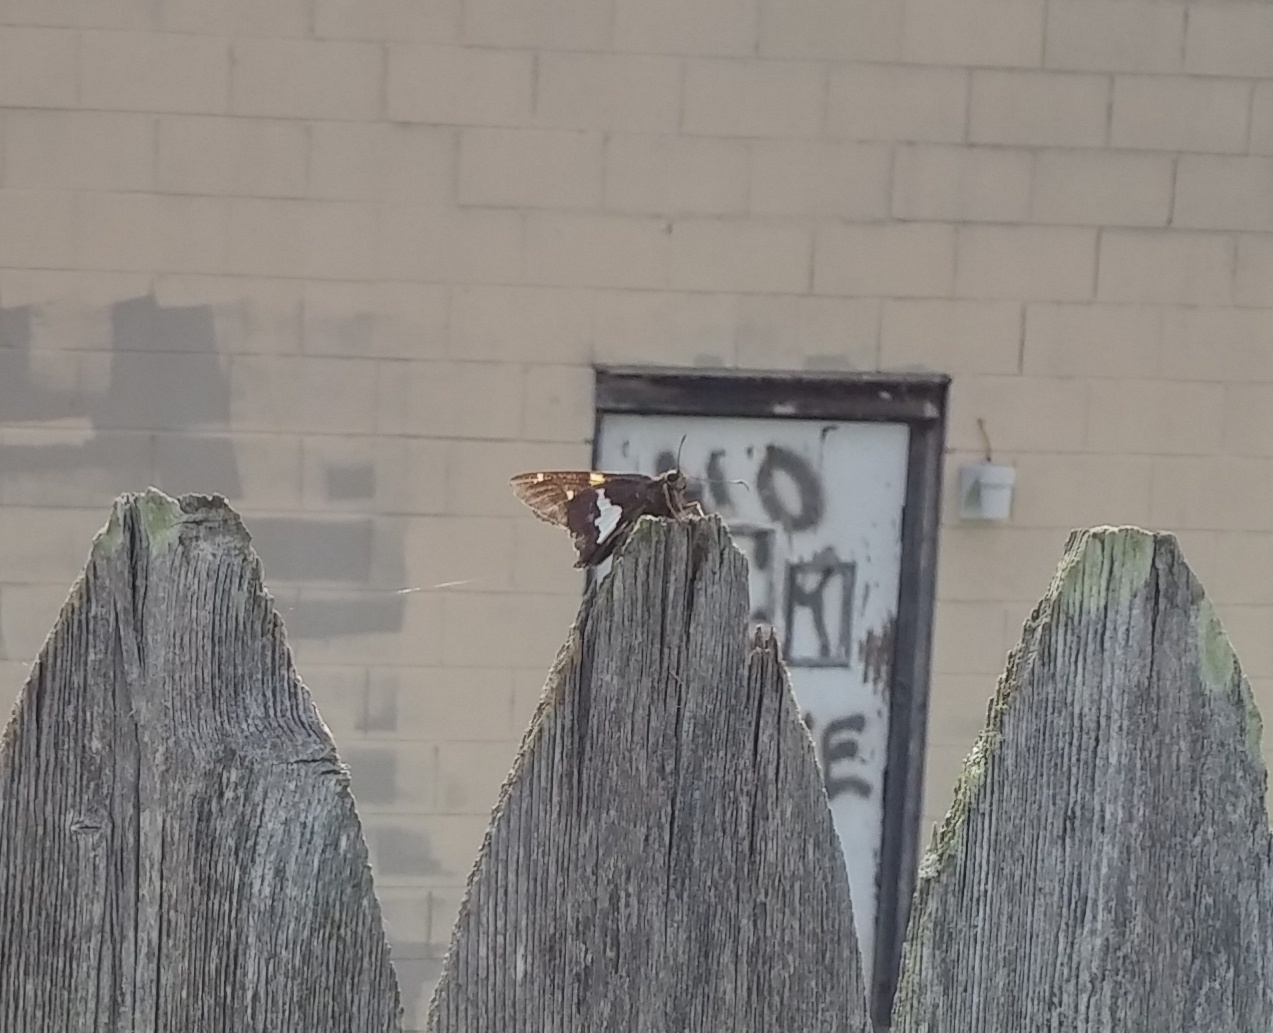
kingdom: Animalia
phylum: Arthropoda
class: Insecta
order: Lepidoptera
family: Hesperiidae
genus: Epargyreus
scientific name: Epargyreus clarus
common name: Silver-spotted skipper
